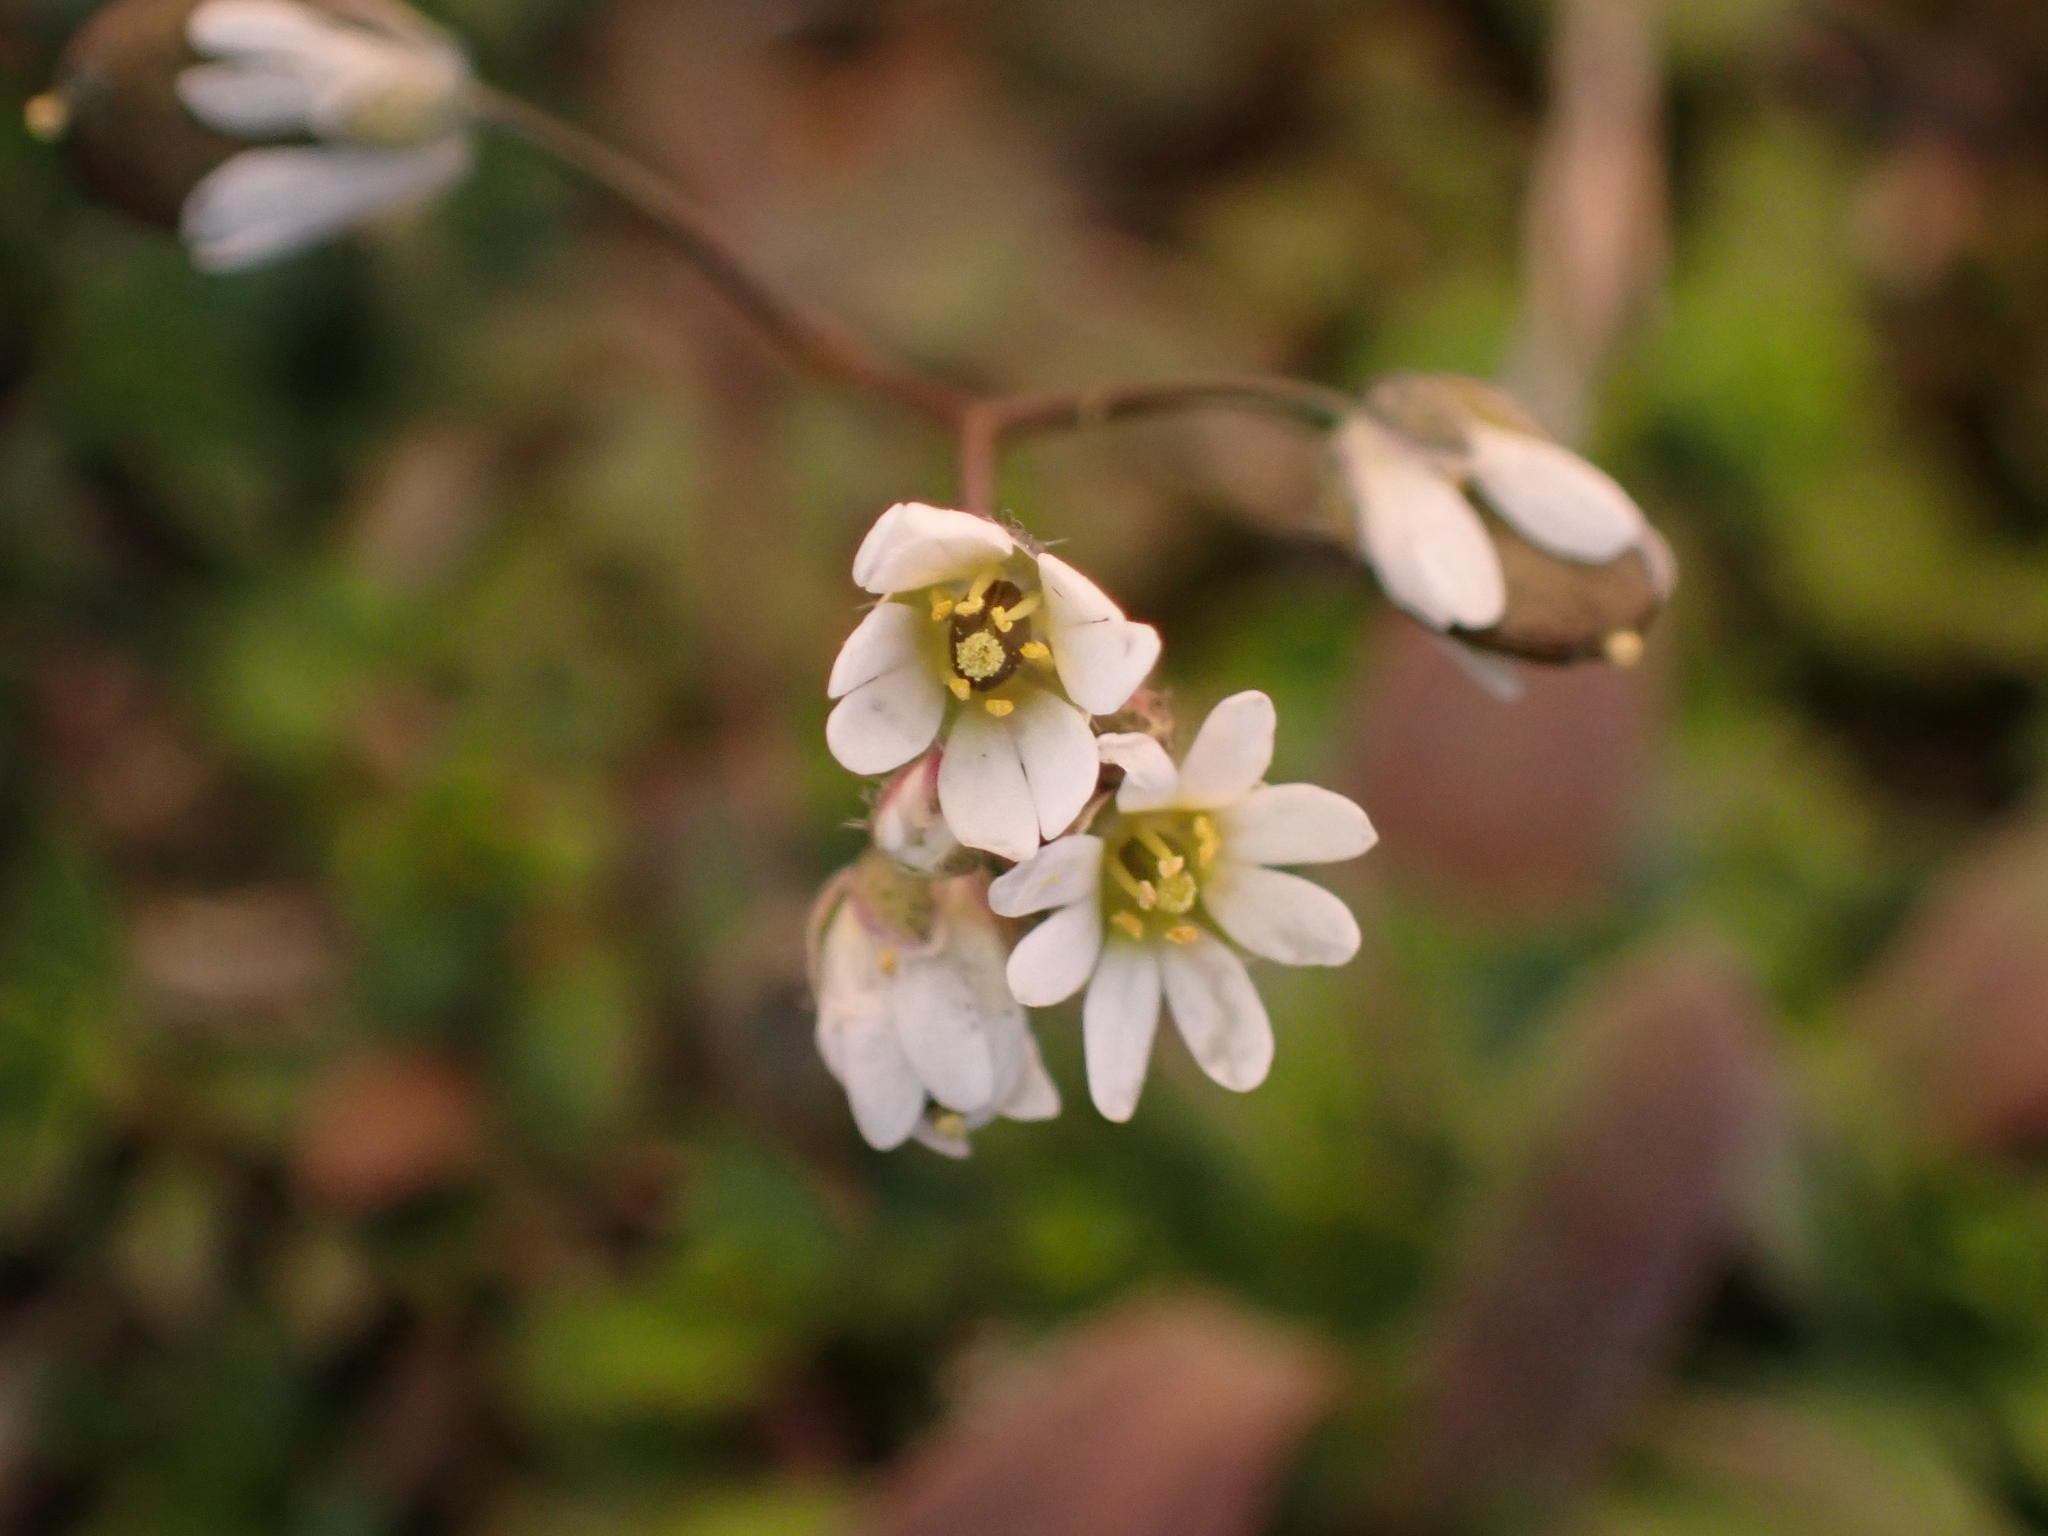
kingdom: Plantae
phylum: Tracheophyta
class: Magnoliopsida
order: Brassicales
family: Brassicaceae
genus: Draba
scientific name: Draba verna
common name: Spring draba
